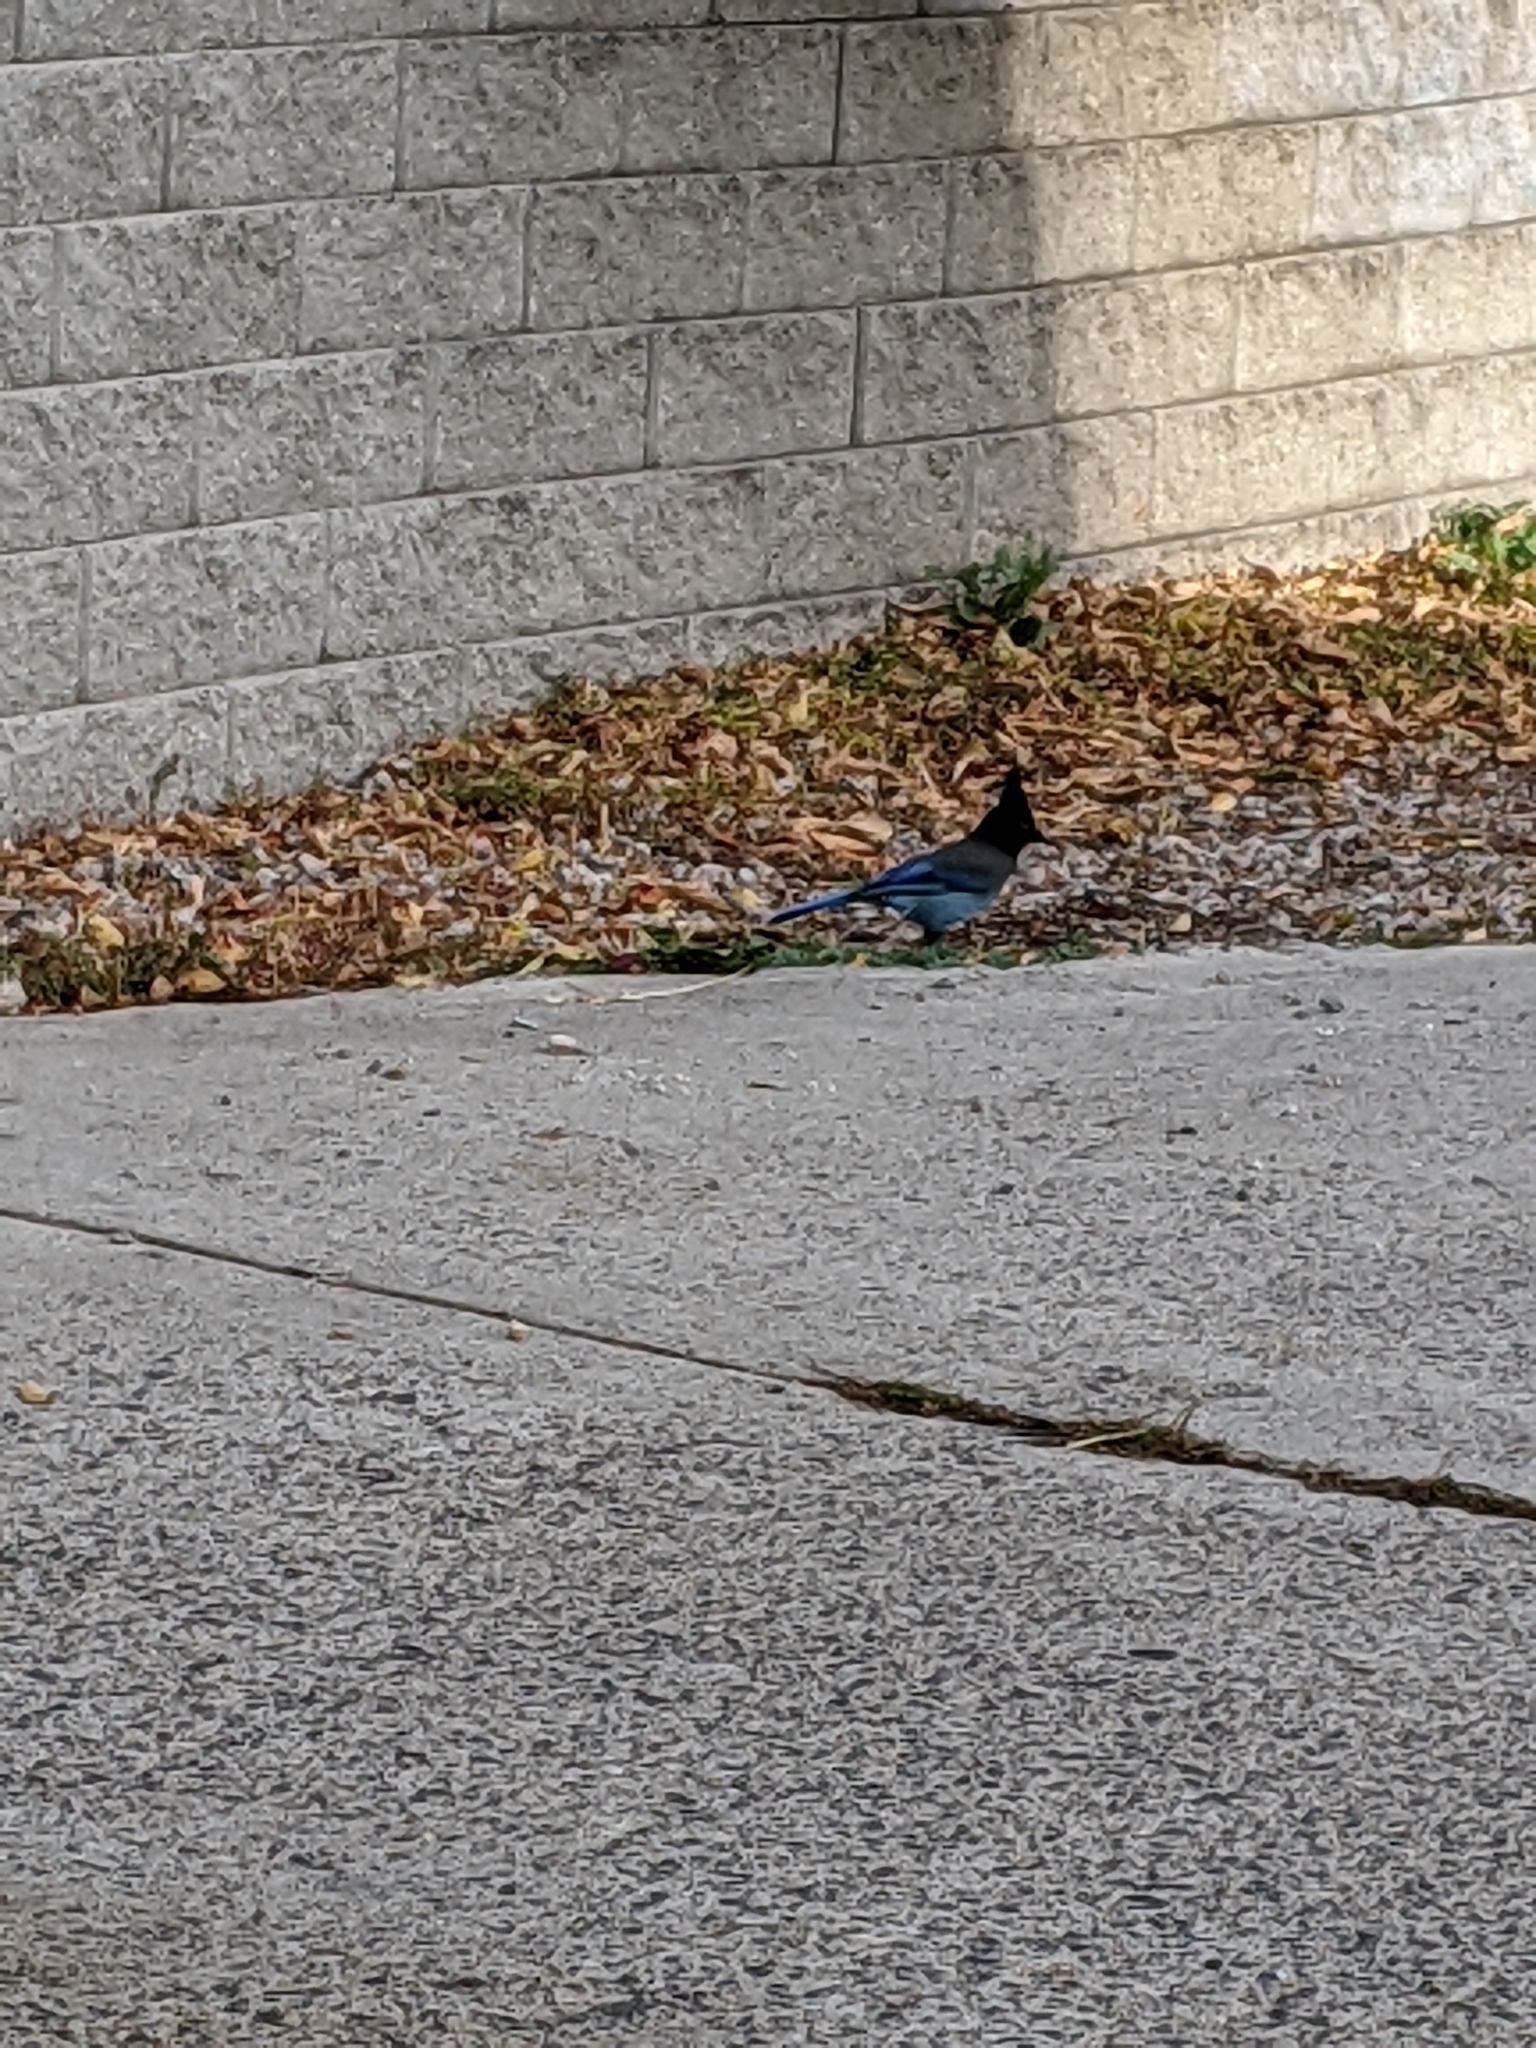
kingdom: Animalia
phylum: Chordata
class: Aves
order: Passeriformes
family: Corvidae
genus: Cyanocitta
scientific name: Cyanocitta stelleri
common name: Steller's jay
